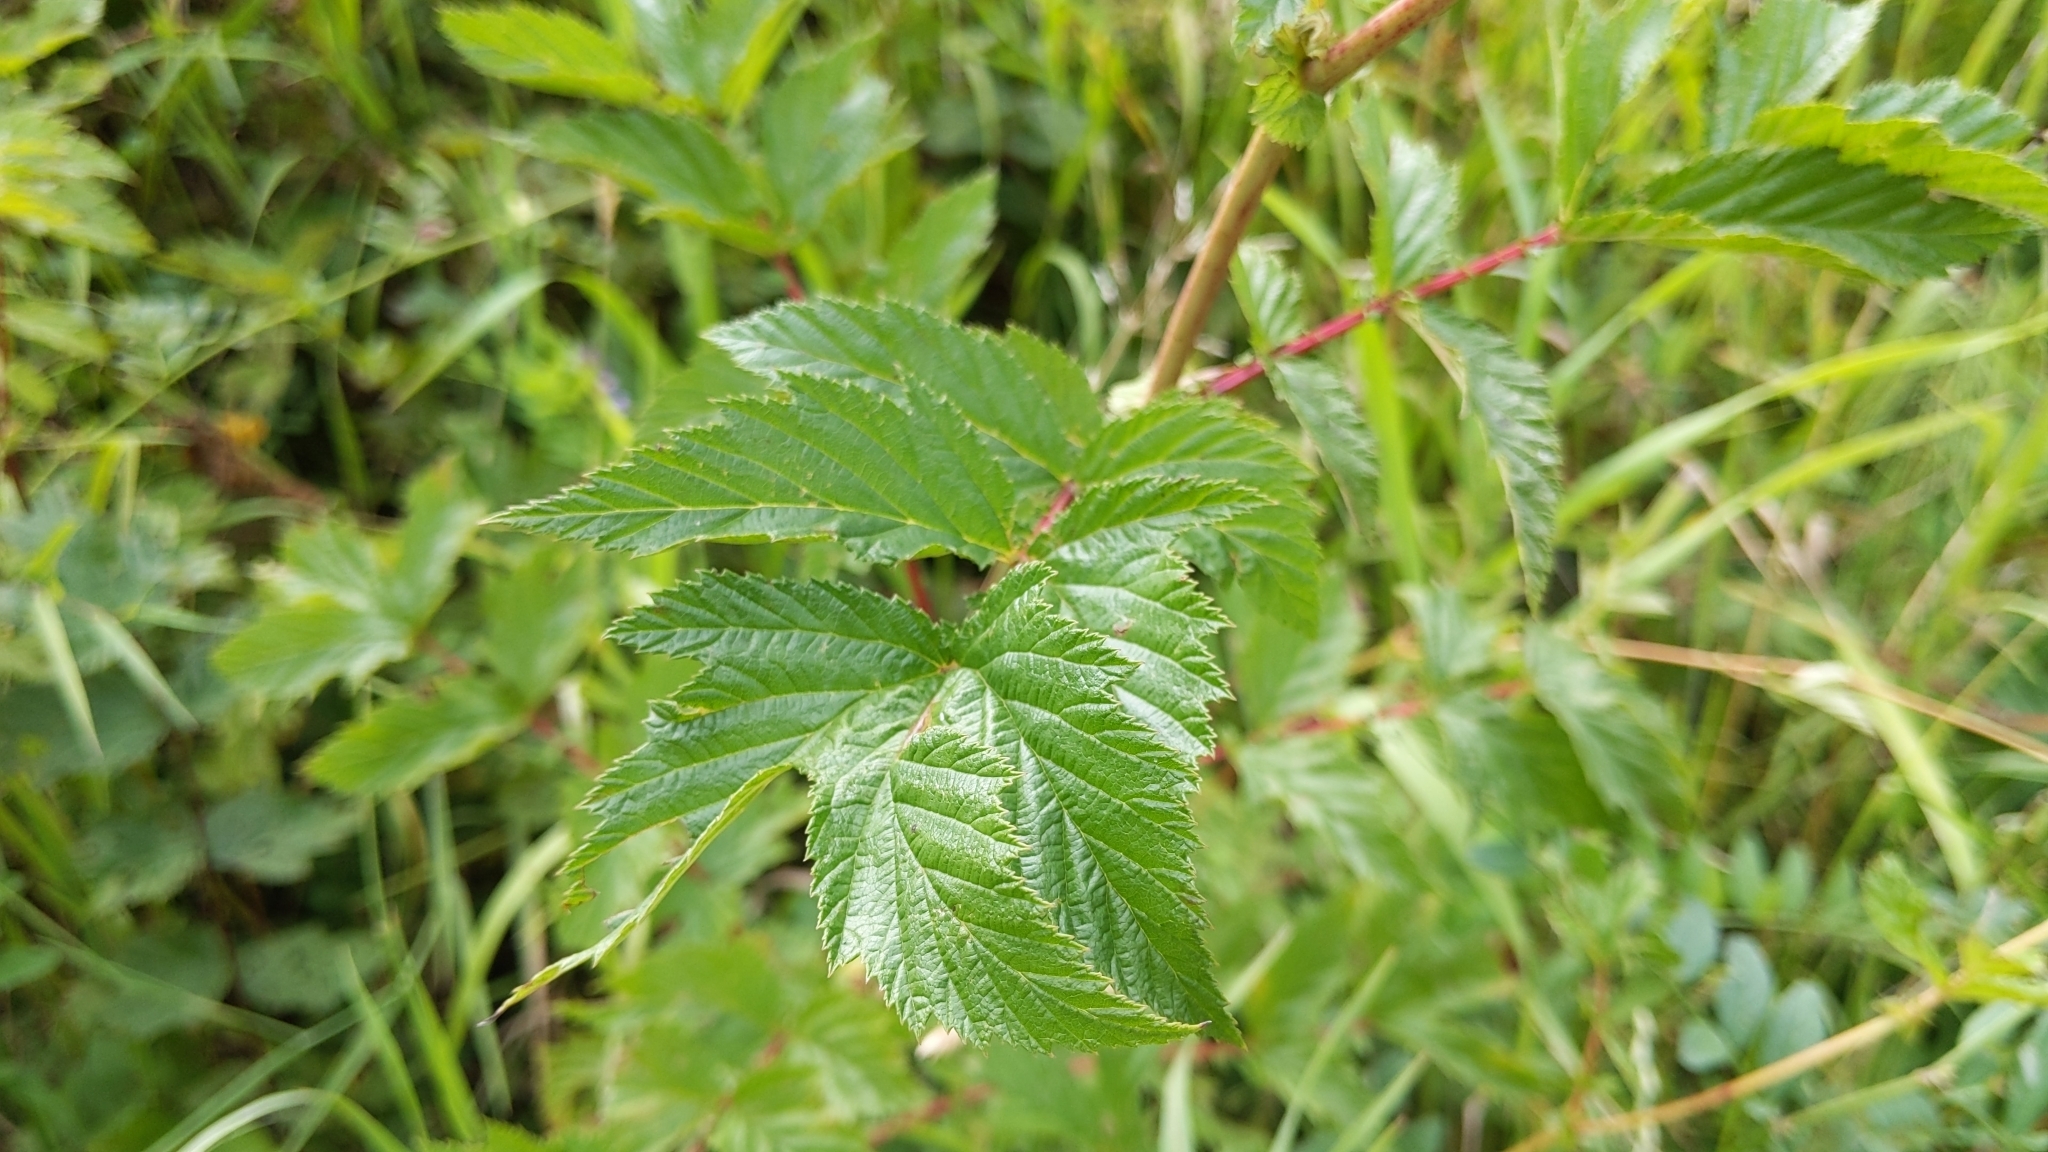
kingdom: Plantae
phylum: Tracheophyta
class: Magnoliopsida
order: Rosales
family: Rosaceae
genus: Filipendula
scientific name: Filipendula ulmaria
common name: Meadowsweet
